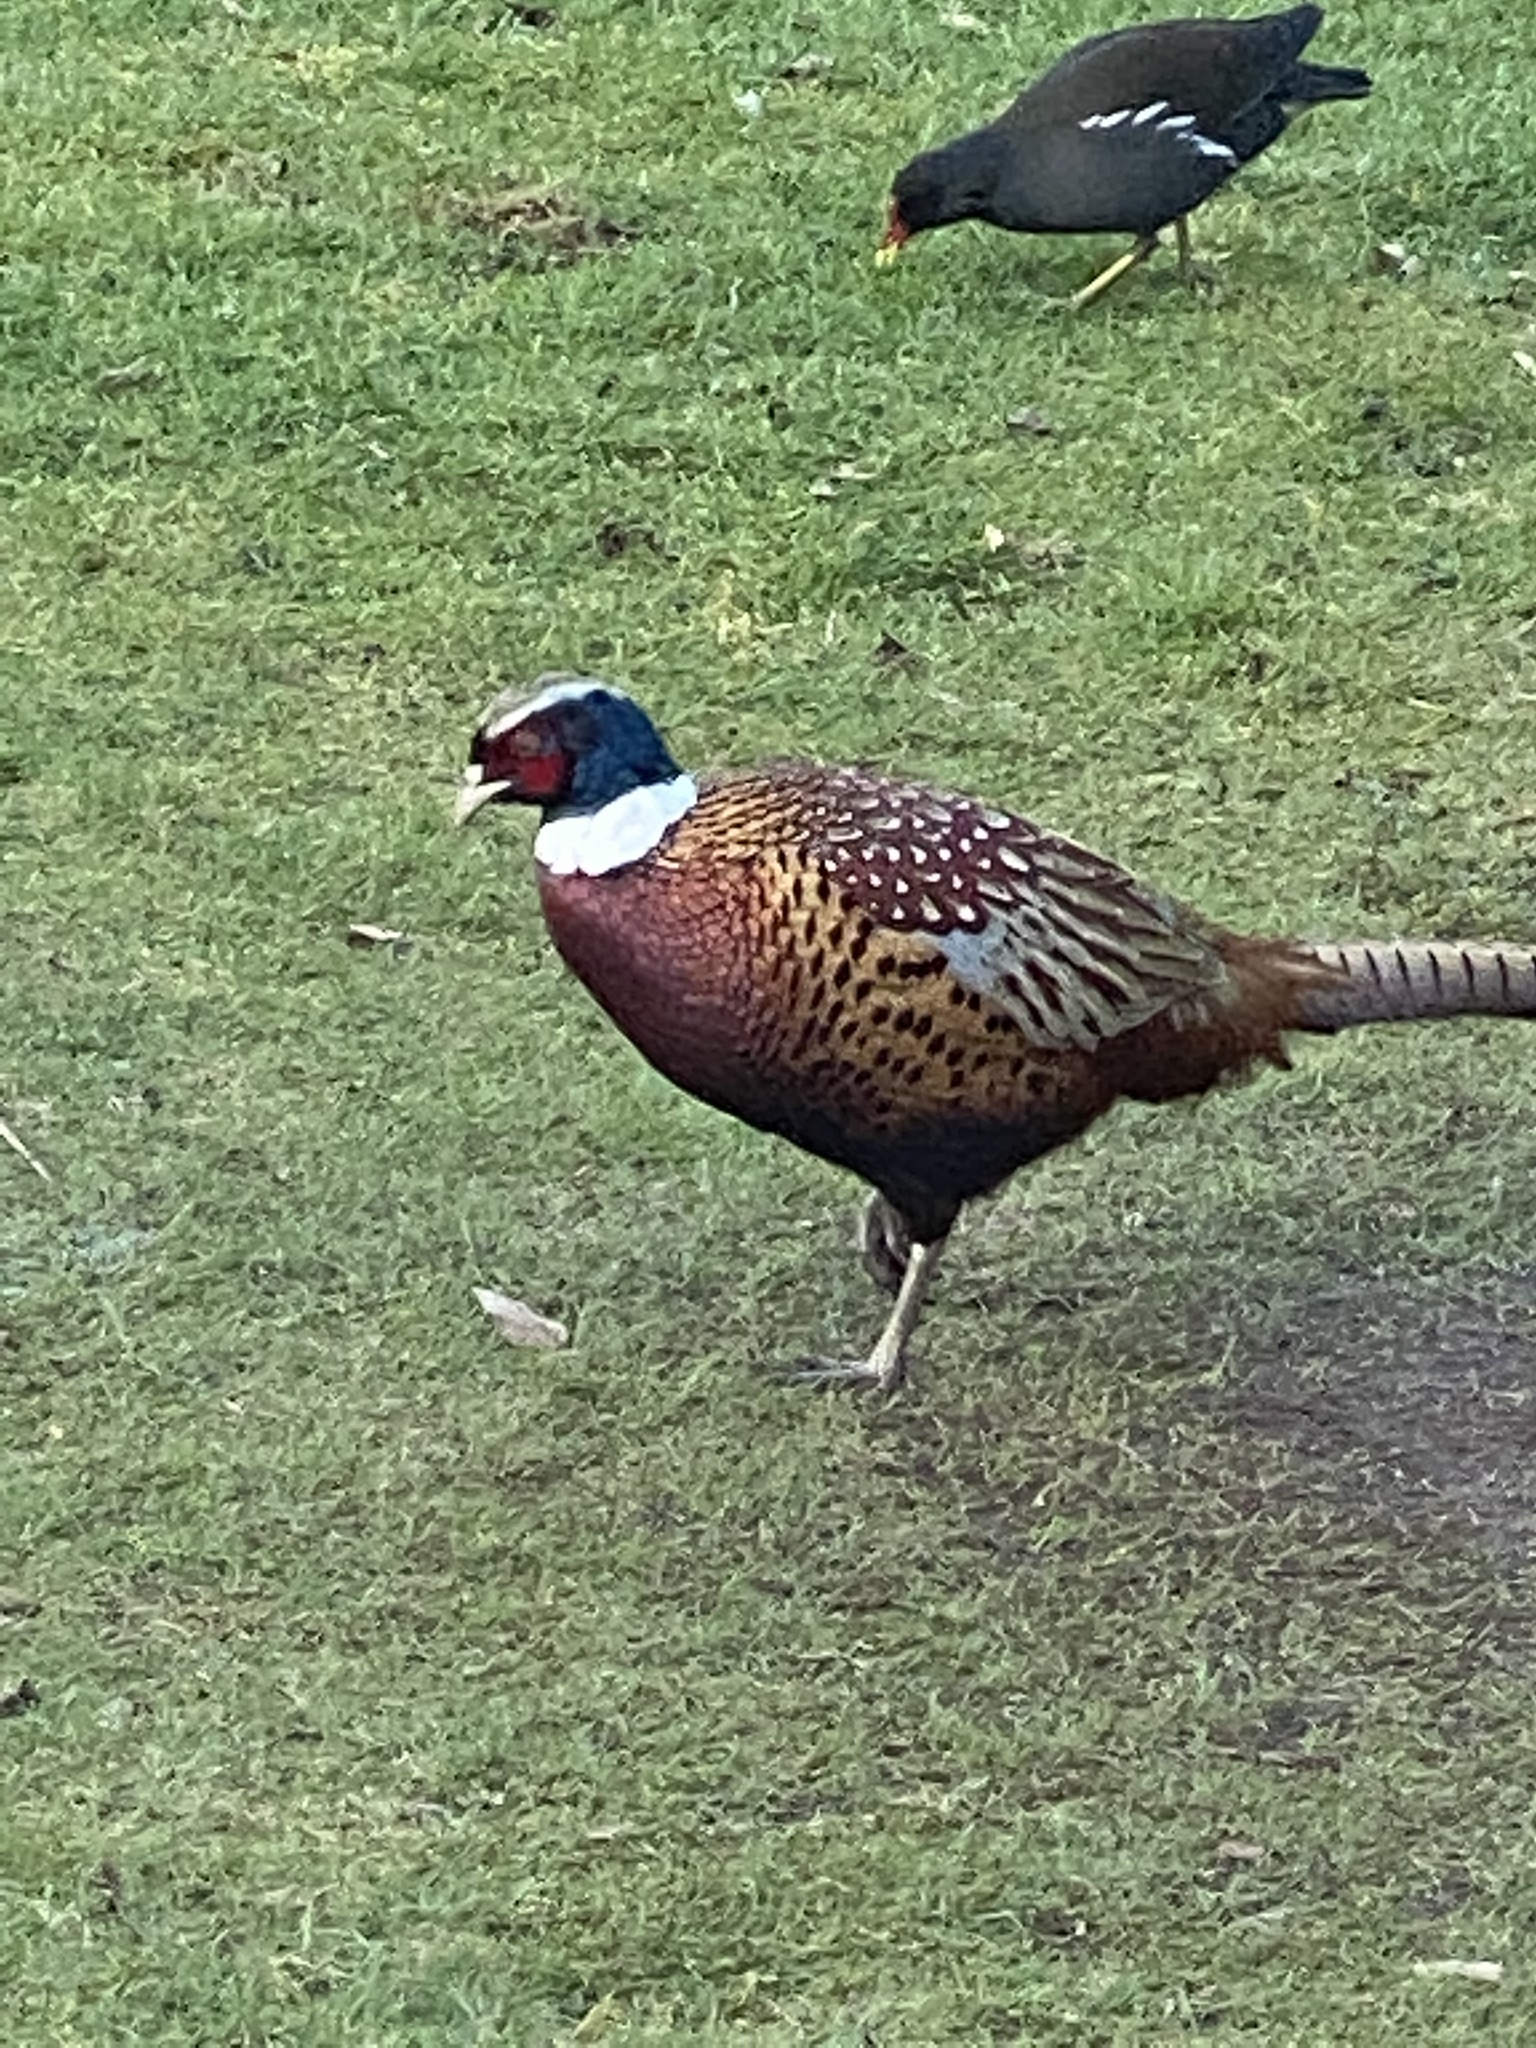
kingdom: Animalia
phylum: Chordata
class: Aves
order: Galliformes
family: Phasianidae
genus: Phasianus
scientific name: Phasianus colchicus
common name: Common pheasant
